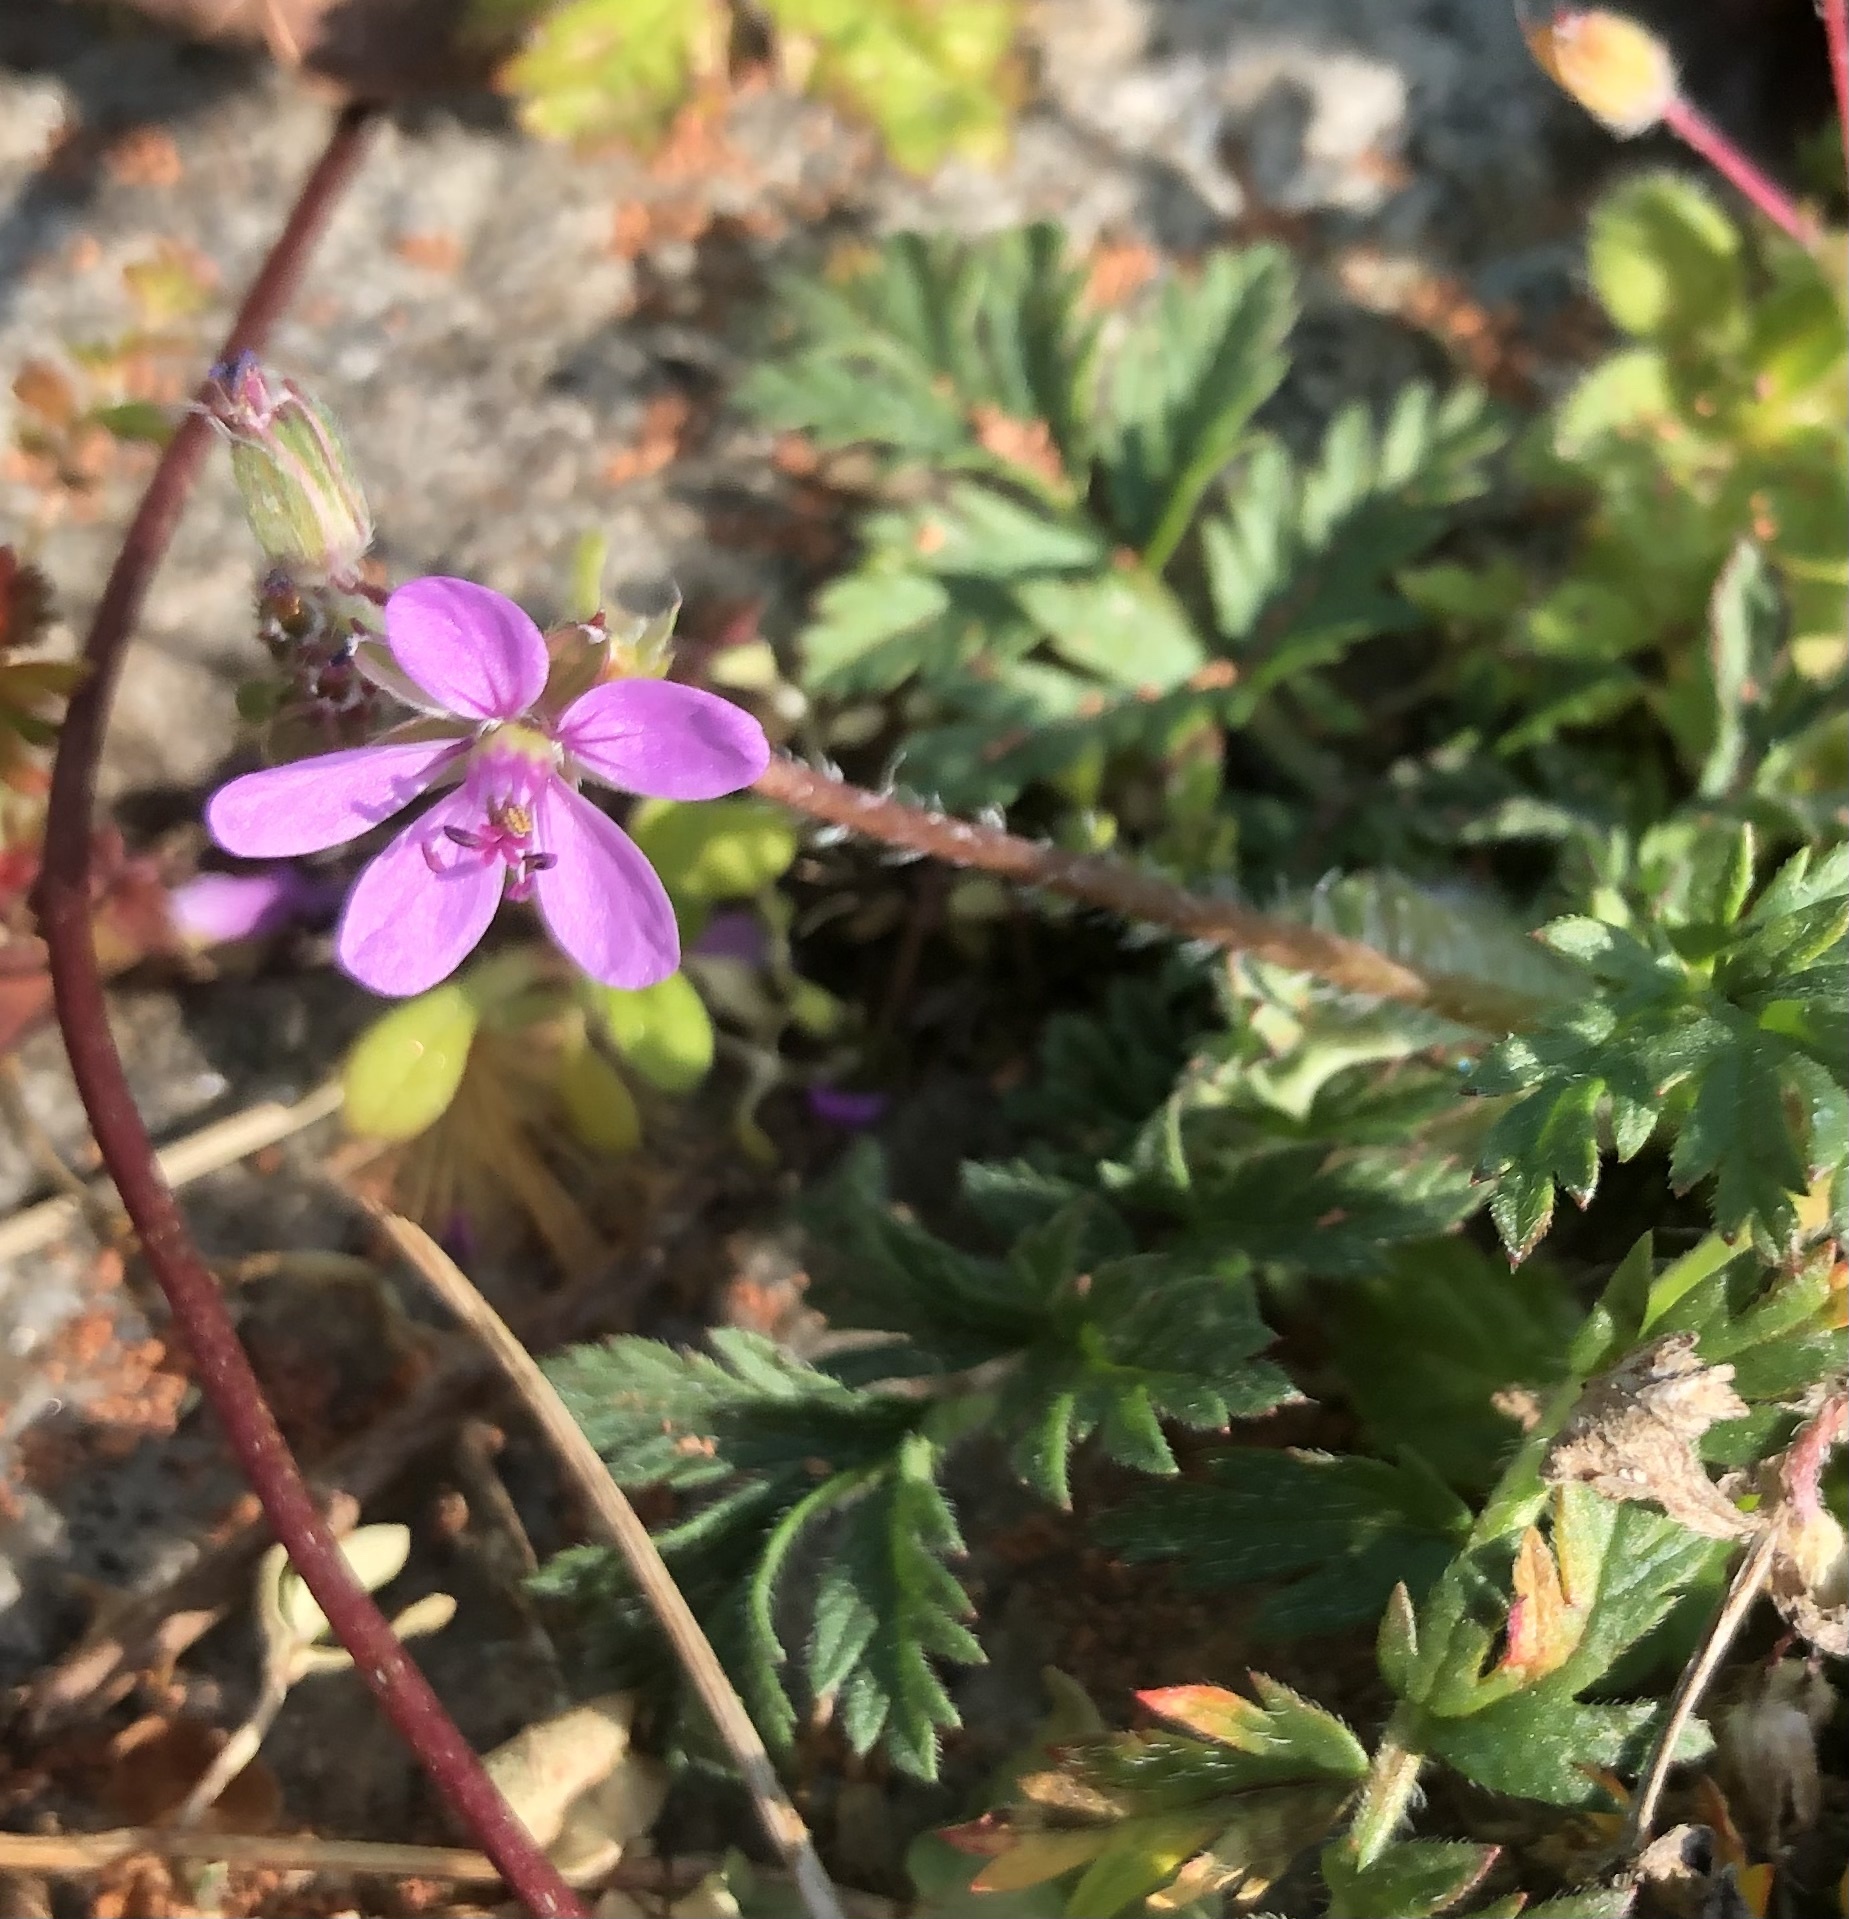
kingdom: Plantae
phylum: Tracheophyta
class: Magnoliopsida
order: Geraniales
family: Geraniaceae
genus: Erodium
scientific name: Erodium cicutarium
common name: Common stork's-bill
